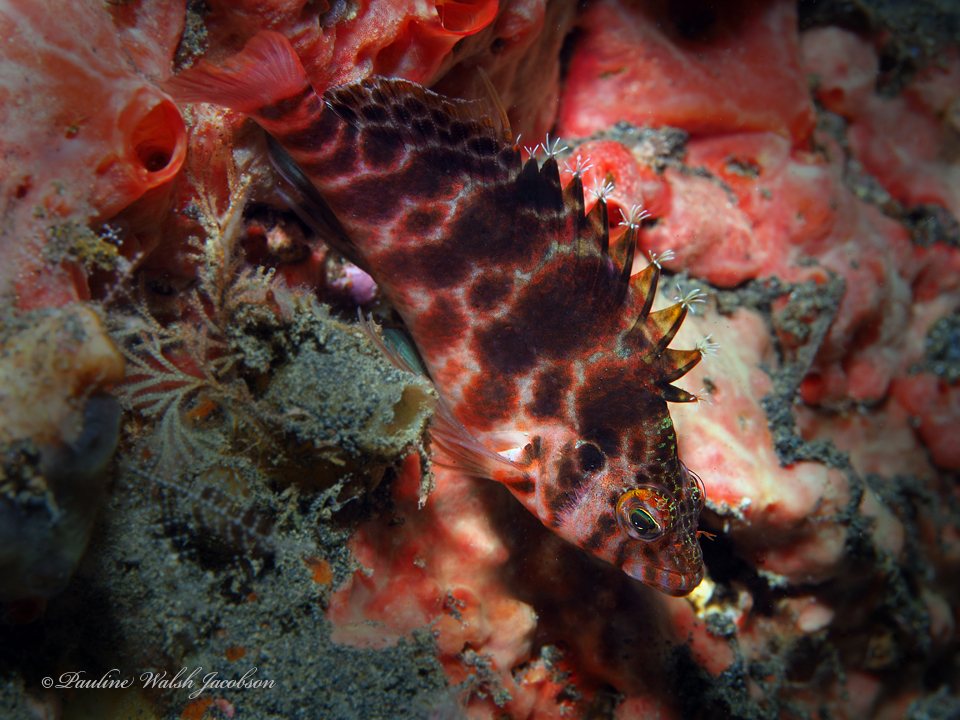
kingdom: Animalia
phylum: Chordata
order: Perciformes
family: Cirrhitidae
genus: Cirrhitichthys
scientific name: Cirrhitichthys aprinus
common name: Blotched hawkfish
